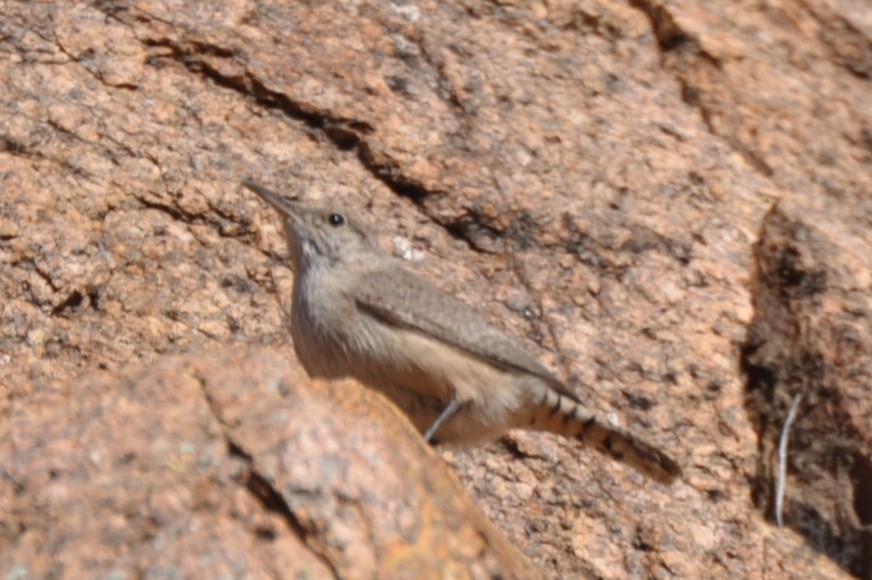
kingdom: Animalia
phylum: Chordata
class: Aves
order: Passeriformes
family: Troglodytidae
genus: Salpinctes
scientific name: Salpinctes obsoletus
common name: Rock wren
